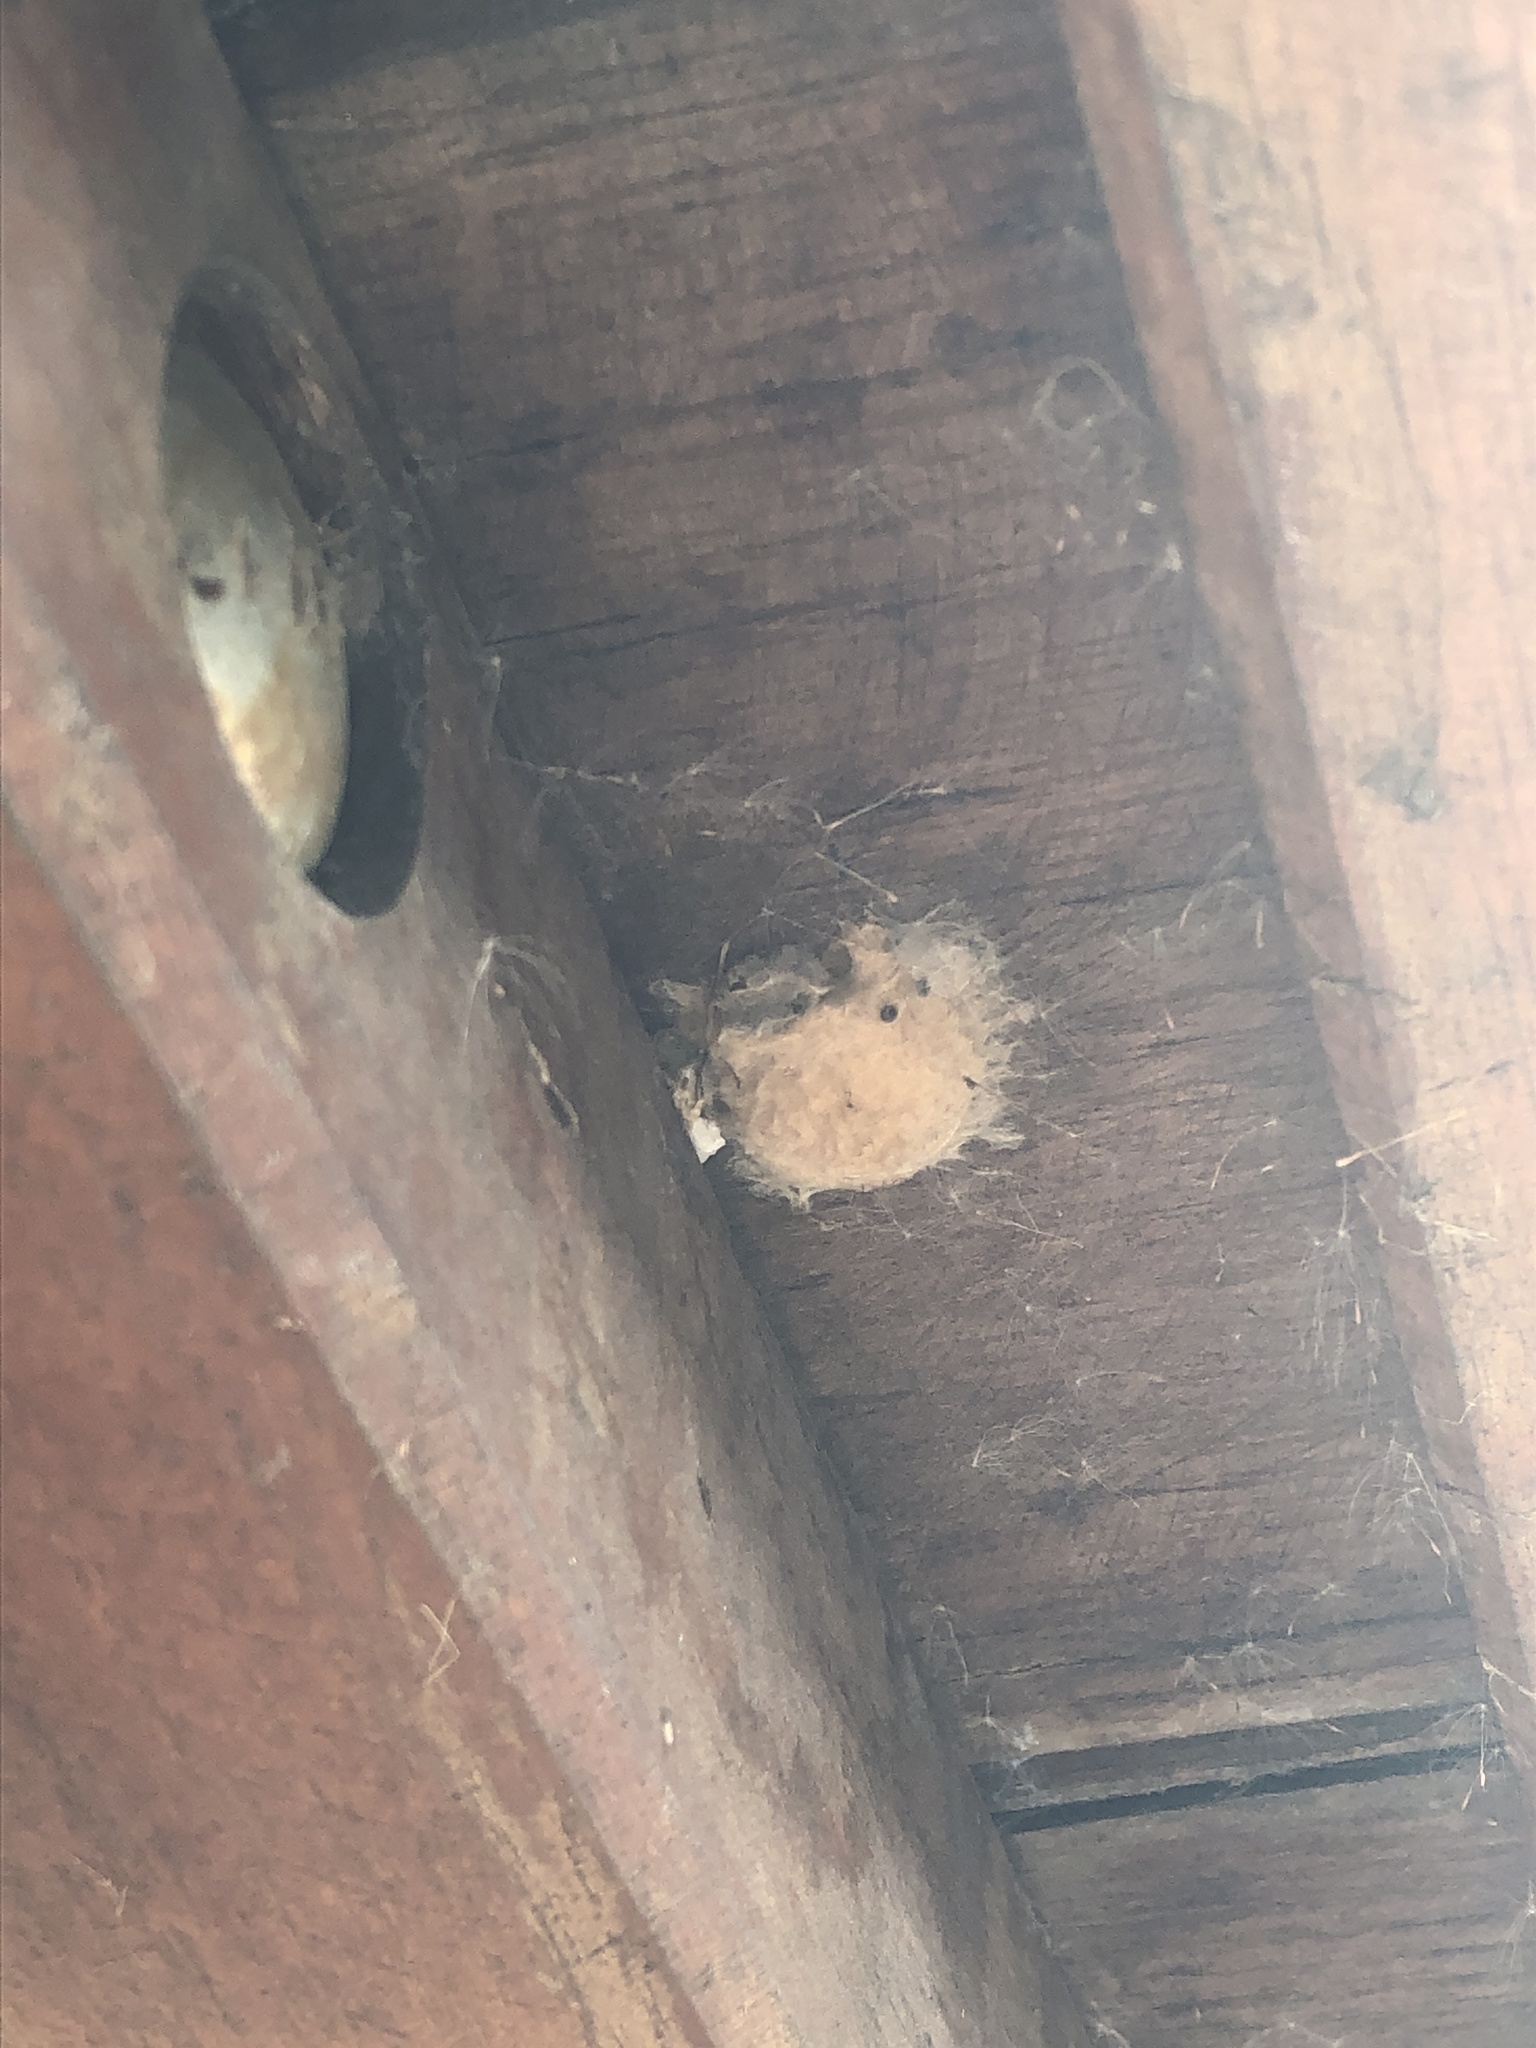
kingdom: Animalia
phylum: Arthropoda
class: Insecta
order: Lepidoptera
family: Erebidae
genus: Lymantria
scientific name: Lymantria dispar
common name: Gypsy moth
